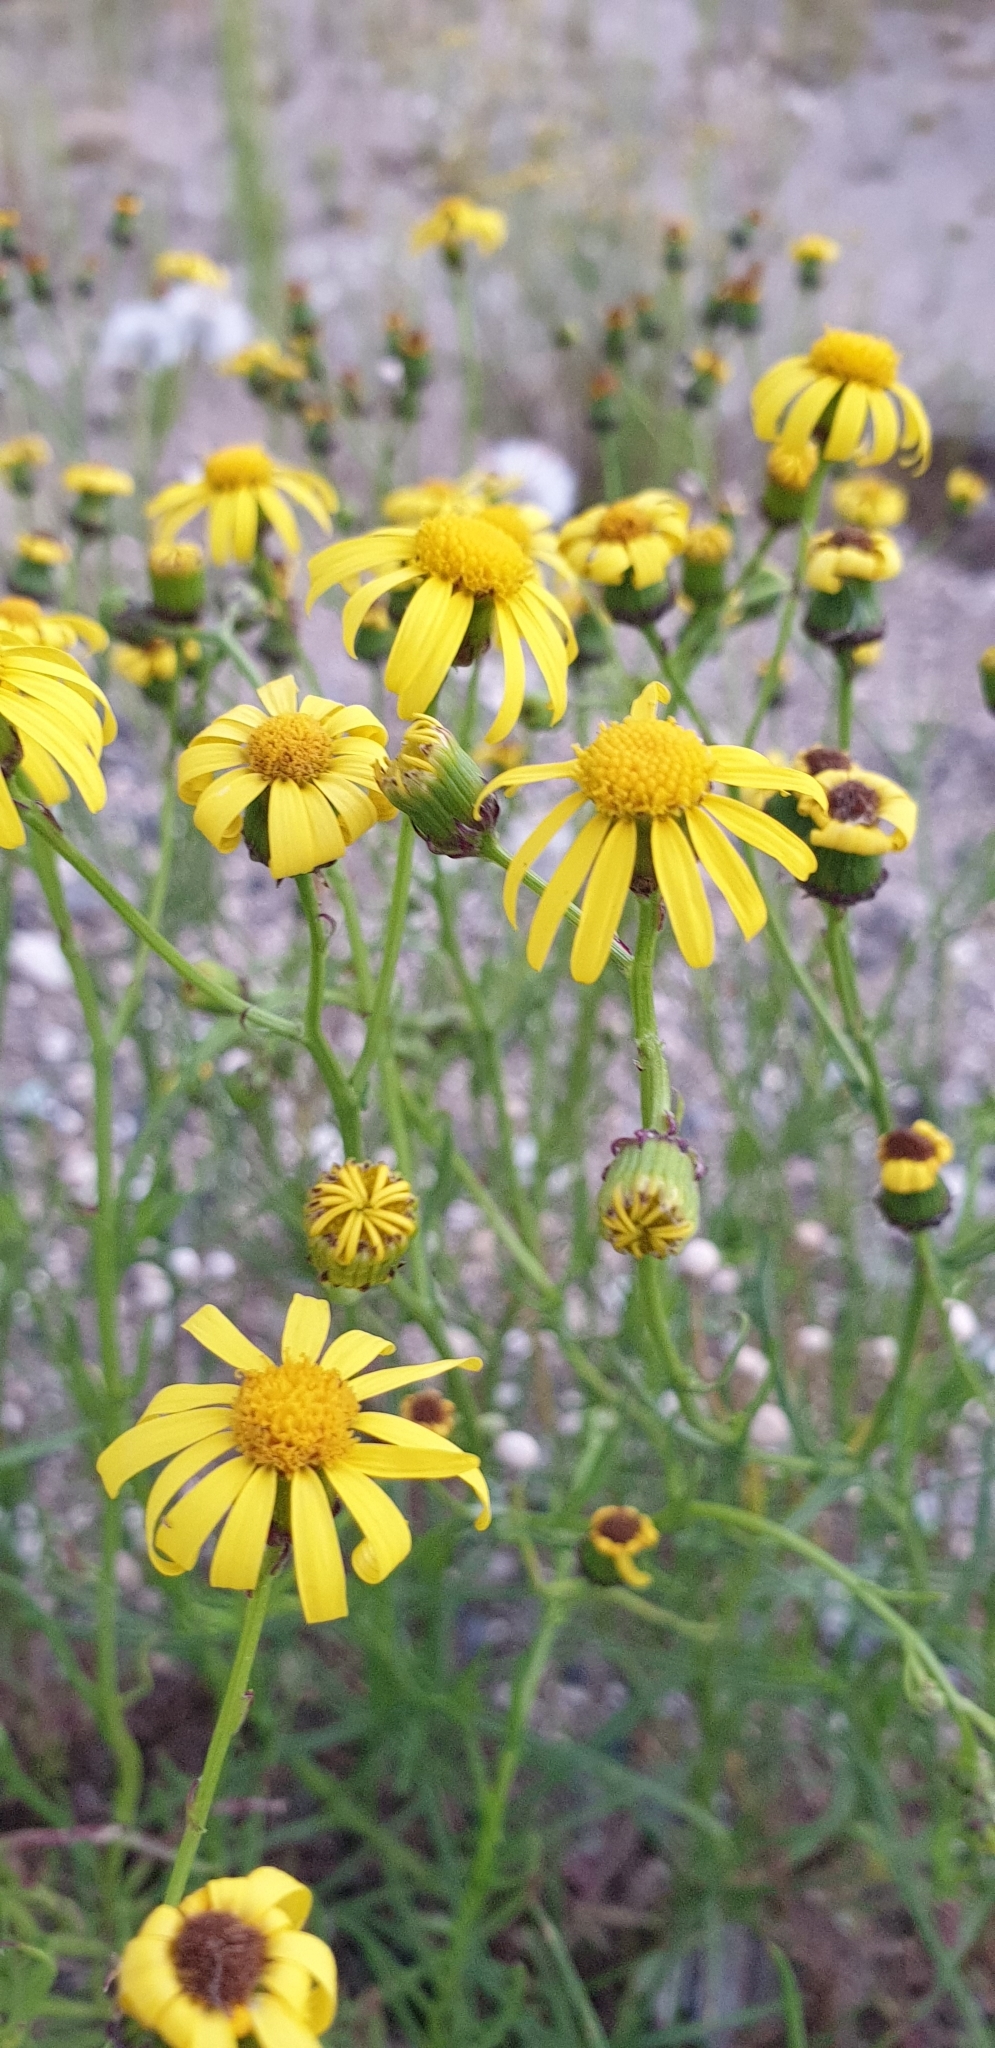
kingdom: Plantae
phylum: Tracheophyta
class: Magnoliopsida
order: Asterales
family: Asteraceae
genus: Senecio
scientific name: Senecio inaequidens
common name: Narrow-leaved ragwort
